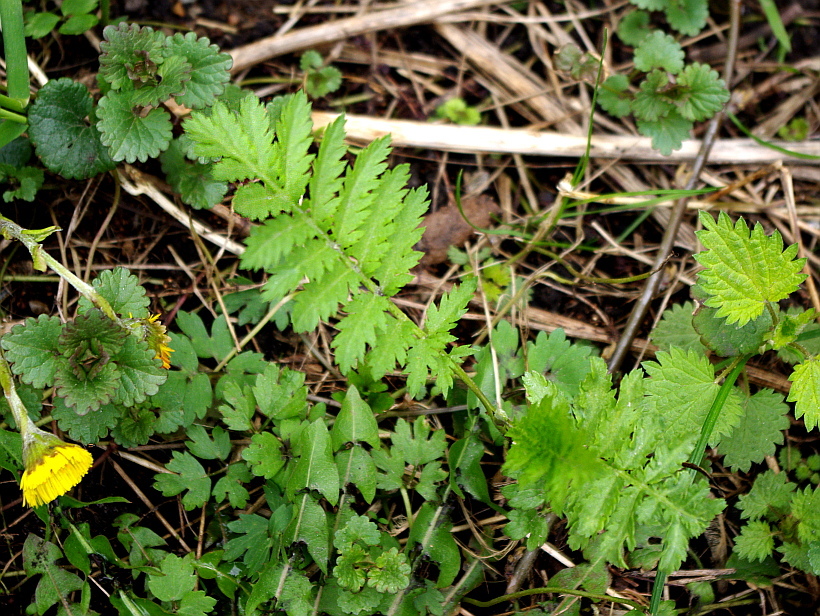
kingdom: Plantae
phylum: Tracheophyta
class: Magnoliopsida
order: Asterales
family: Asteraceae
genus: Tanacetum
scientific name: Tanacetum vulgare
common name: Common tansy
